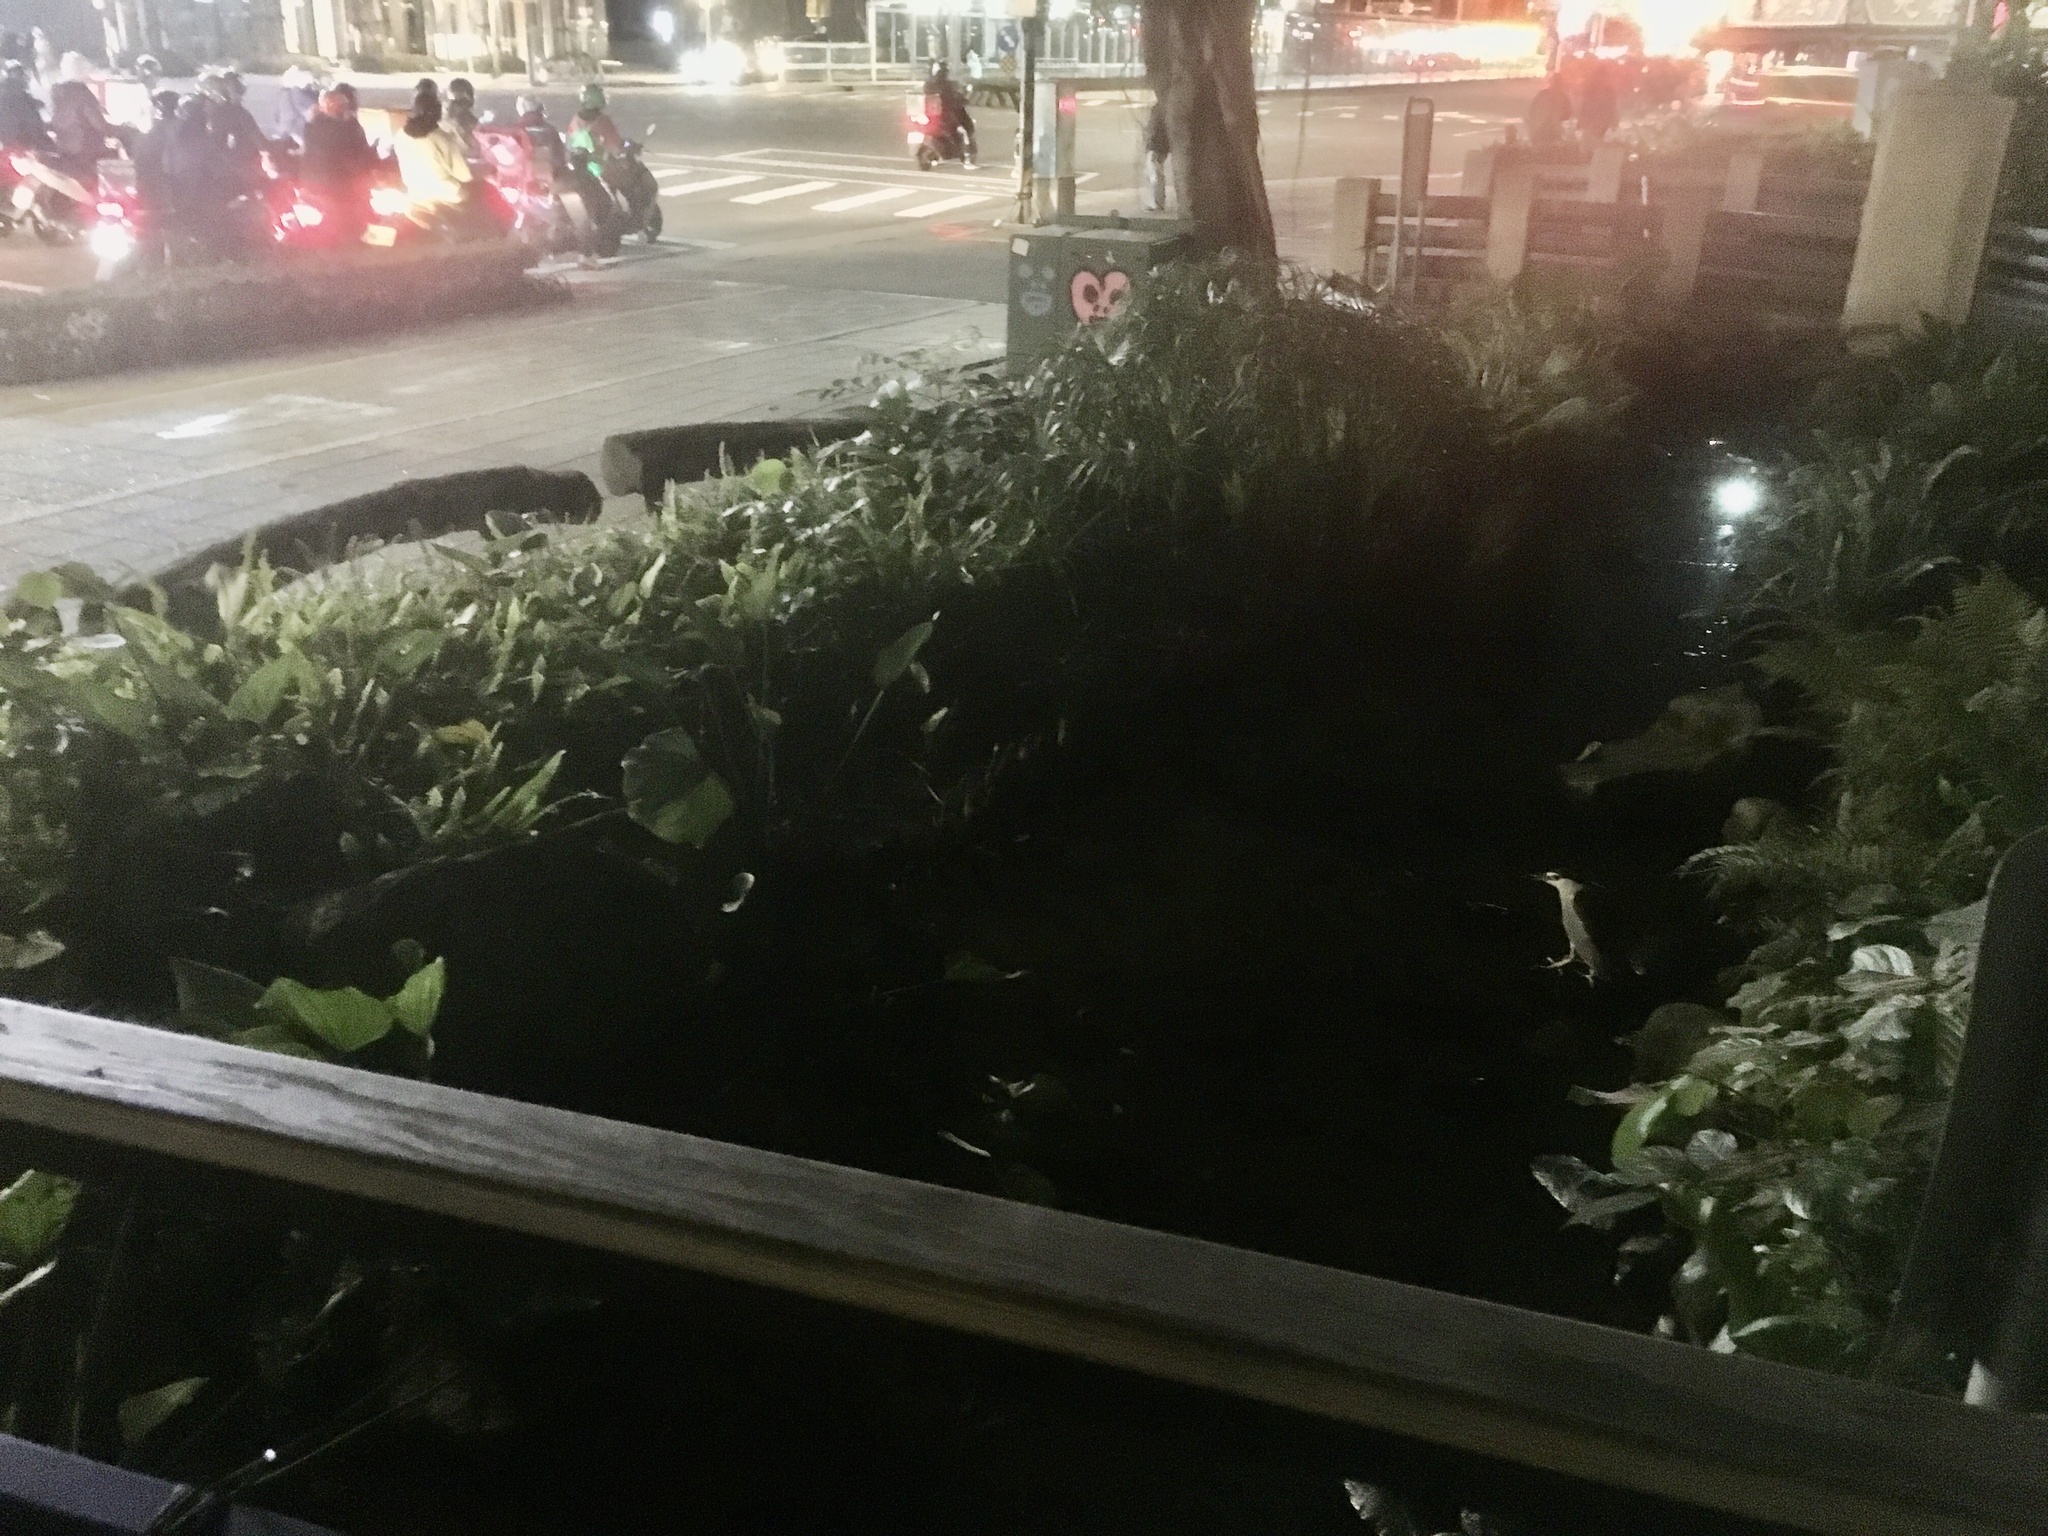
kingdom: Animalia
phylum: Chordata
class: Aves
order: Pelecaniformes
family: Ardeidae
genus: Nycticorax
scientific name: Nycticorax nycticorax
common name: Black-crowned night heron
